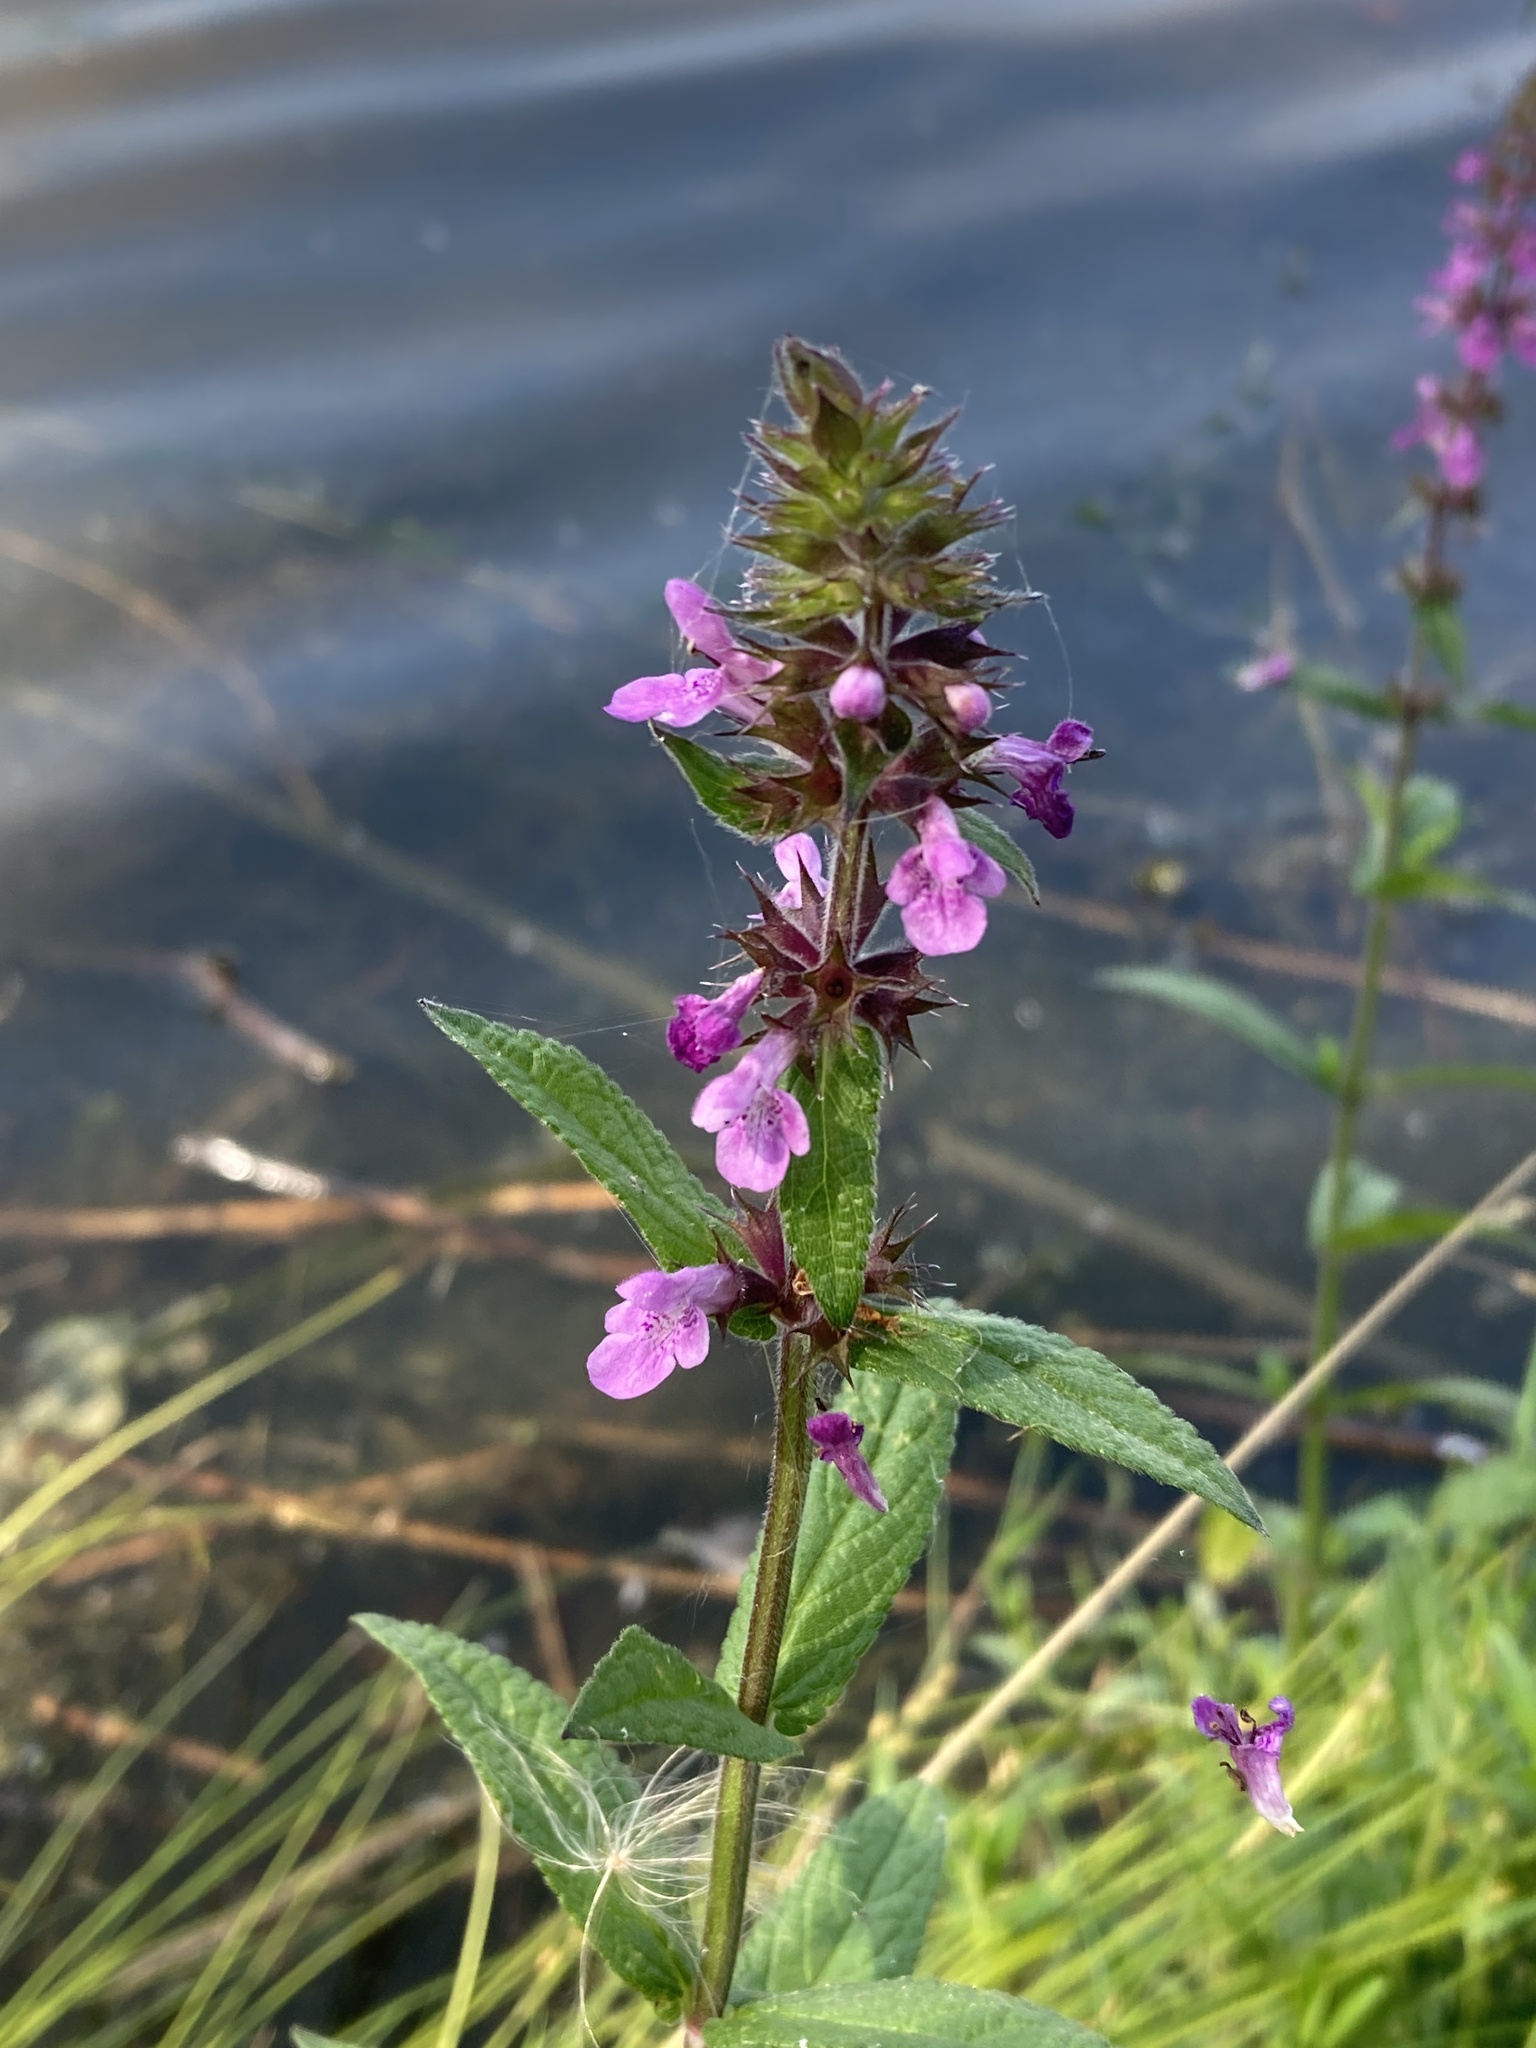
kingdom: Plantae
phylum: Tracheophyta
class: Magnoliopsida
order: Lamiales
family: Lamiaceae
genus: Stachys
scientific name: Stachys palustris
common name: Marsh woundwort
